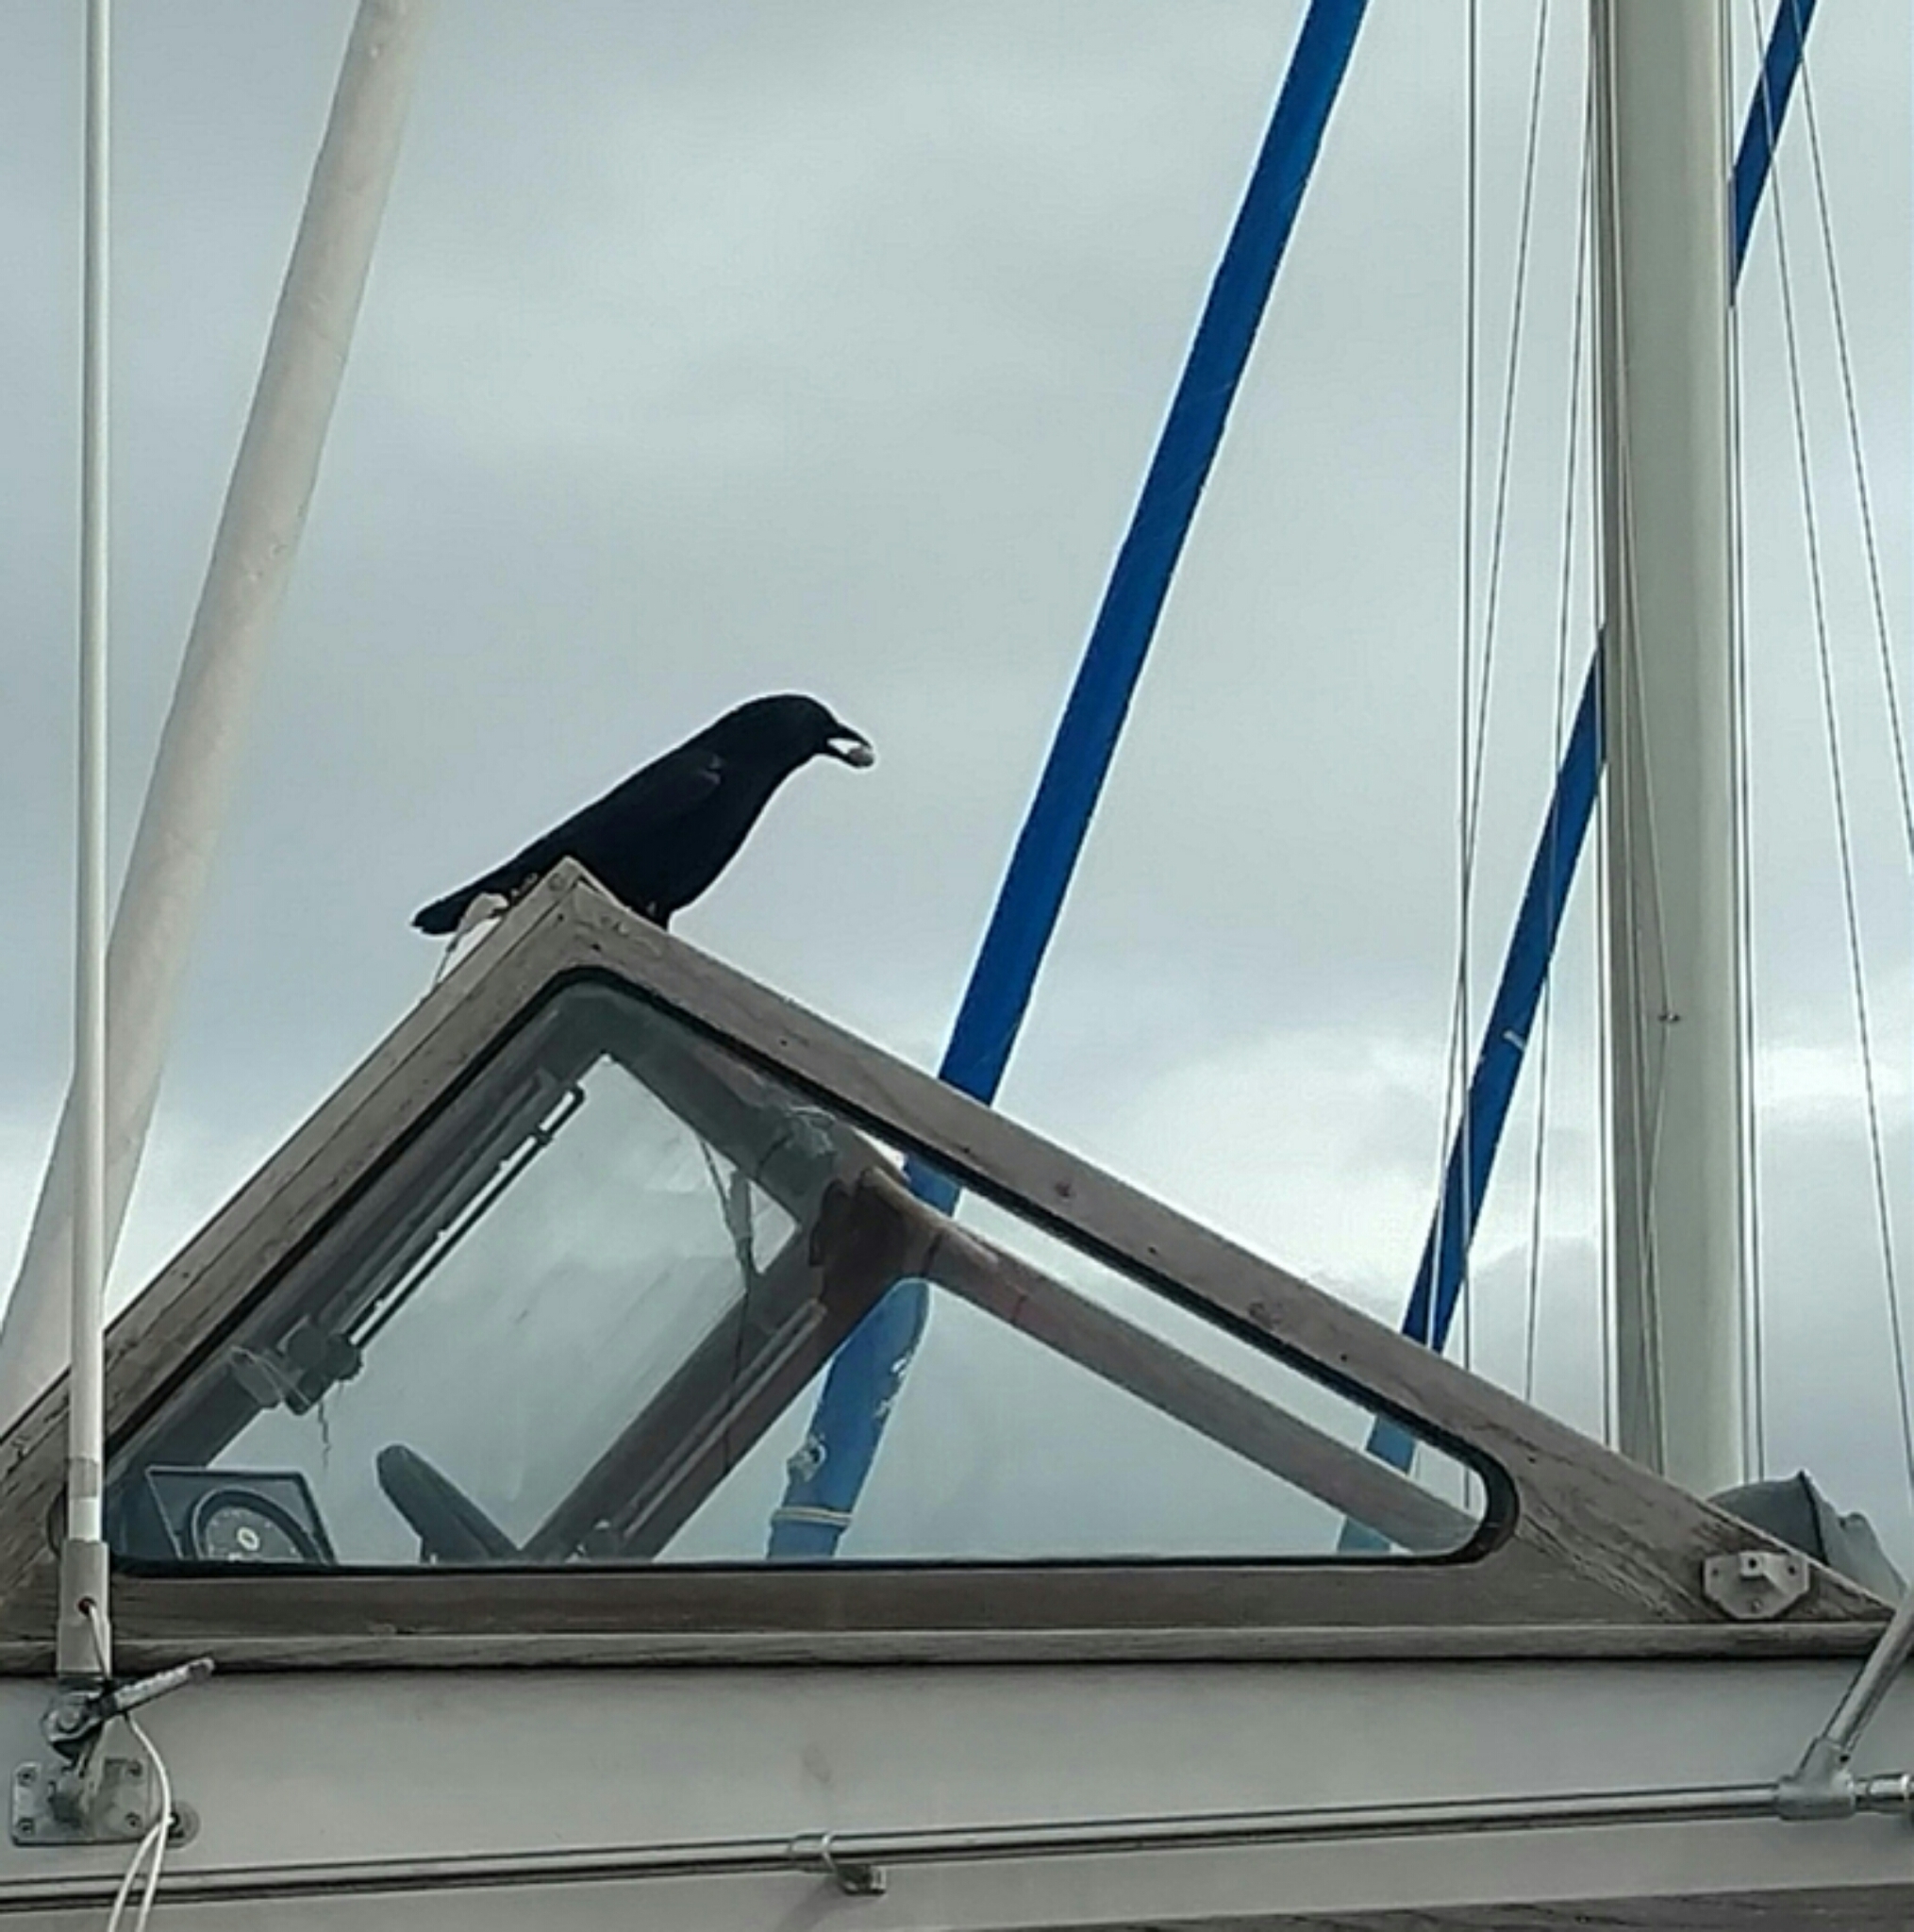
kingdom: Animalia
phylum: Chordata
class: Aves
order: Passeriformes
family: Corvidae
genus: Corvus
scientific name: Corvus brachyrhynchos
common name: American crow
